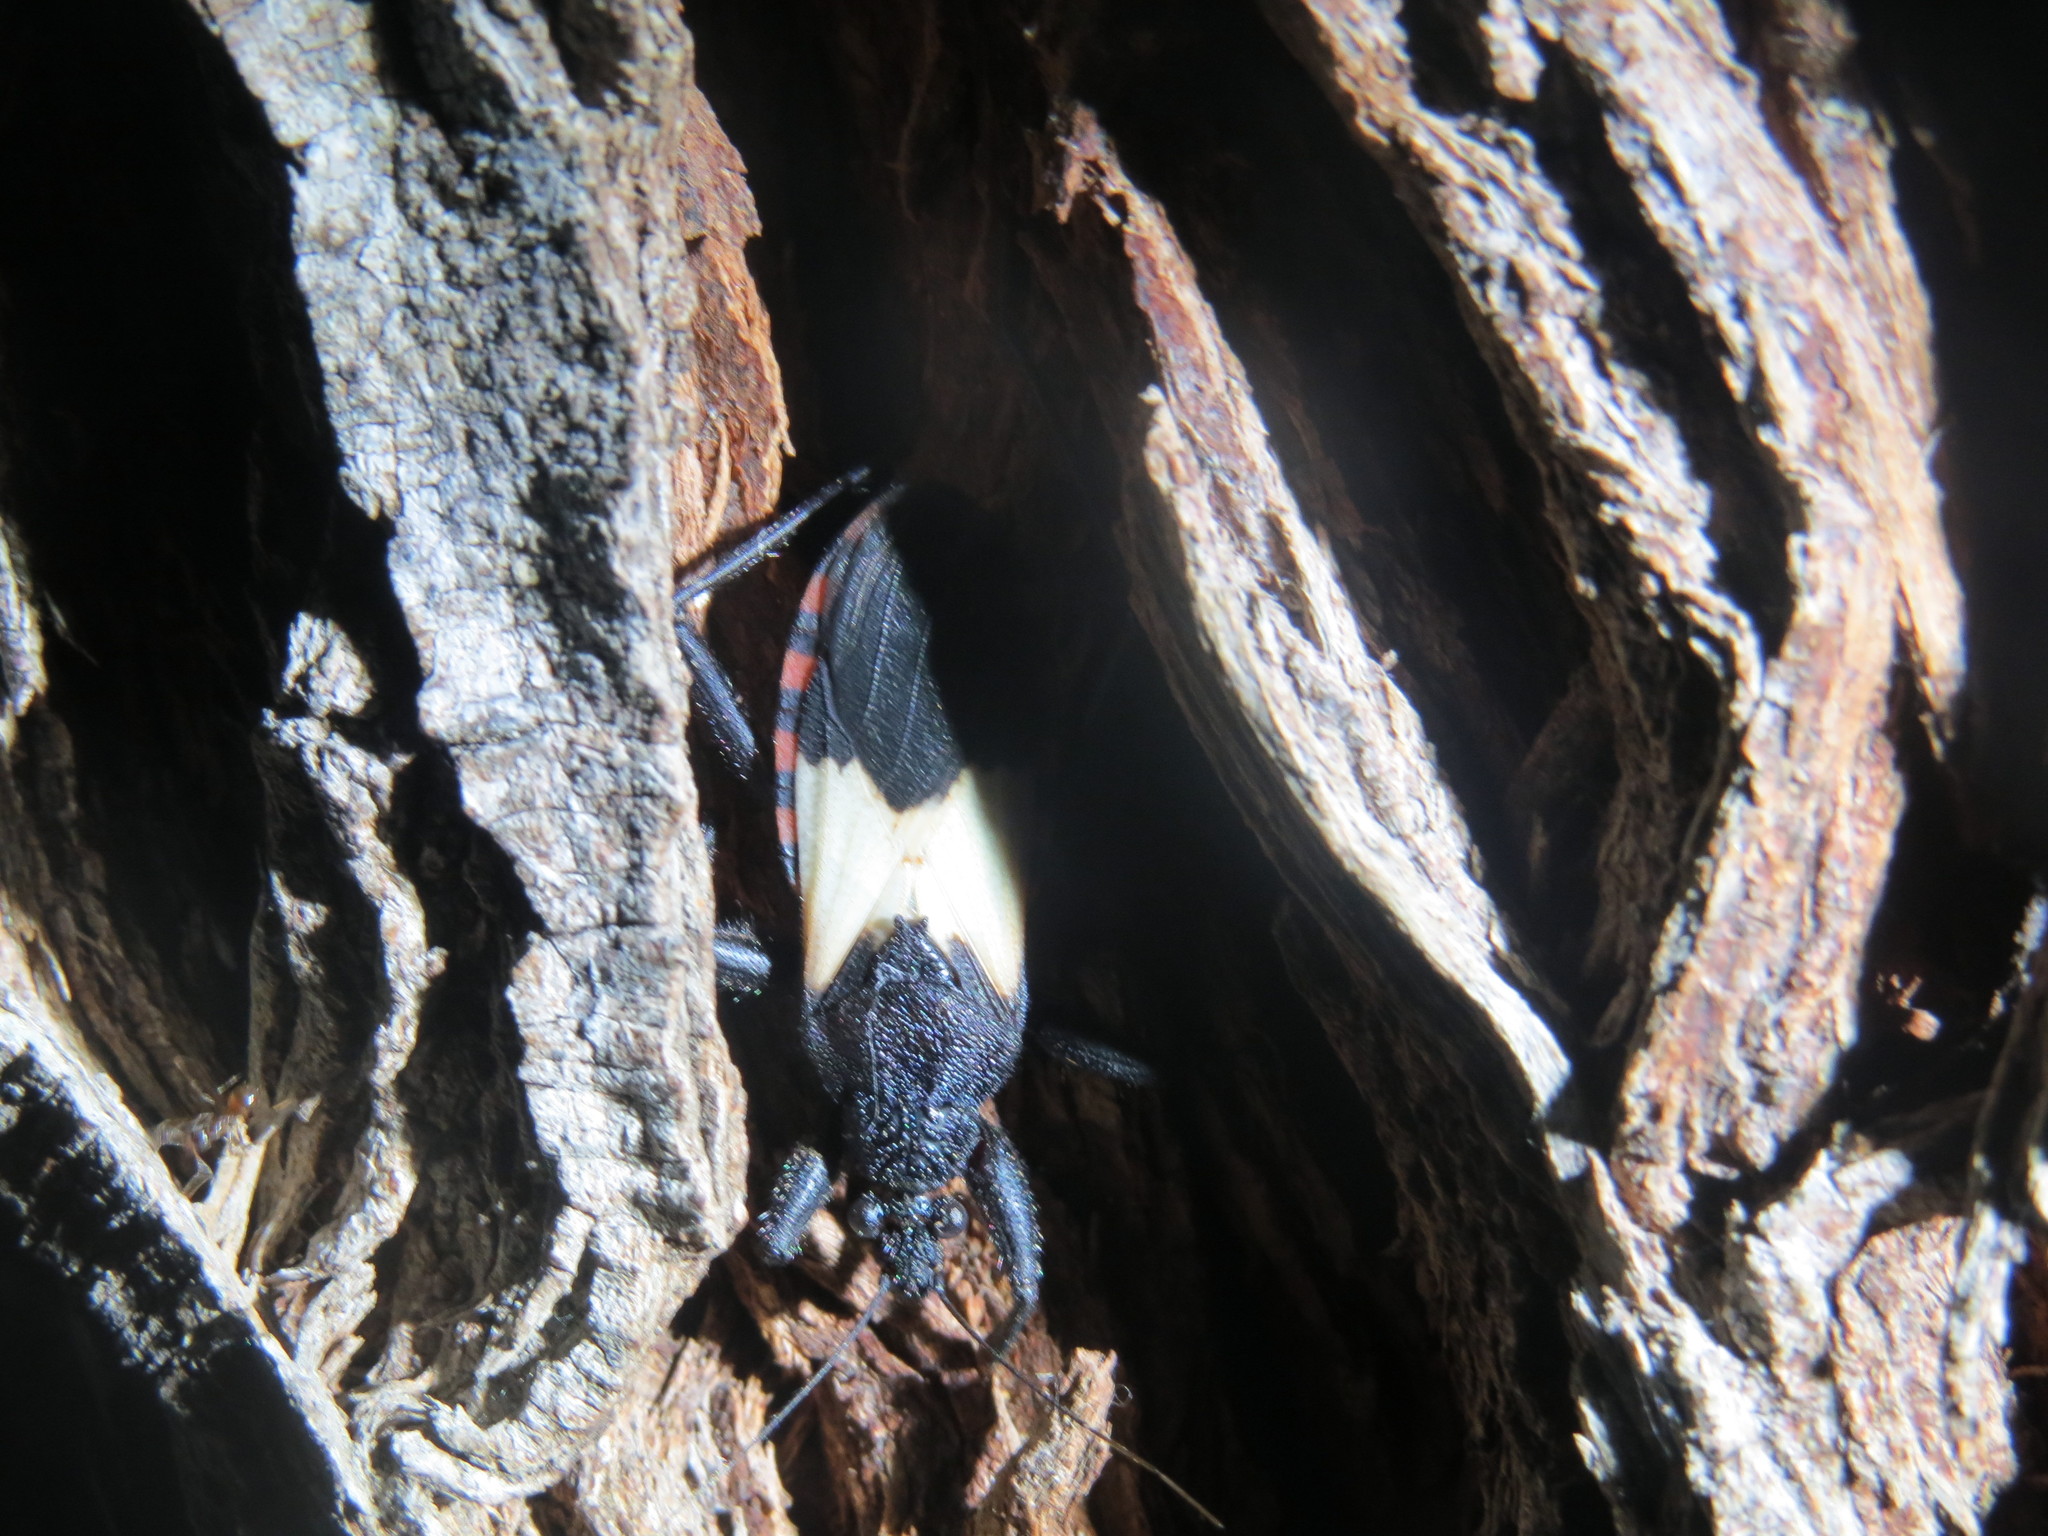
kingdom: Animalia
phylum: Arthropoda
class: Insecta
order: Hemiptera
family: Reduviidae
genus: Microtomus
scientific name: Microtomus luctuosus
